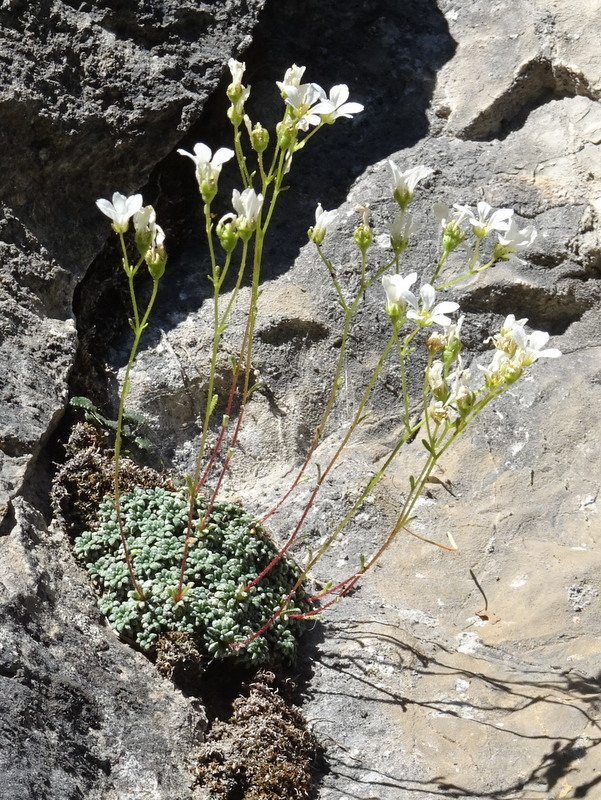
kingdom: Plantae
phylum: Tracheophyta
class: Magnoliopsida
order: Saxifragales
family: Saxifragaceae
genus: Saxifraga
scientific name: Saxifraga caesia
